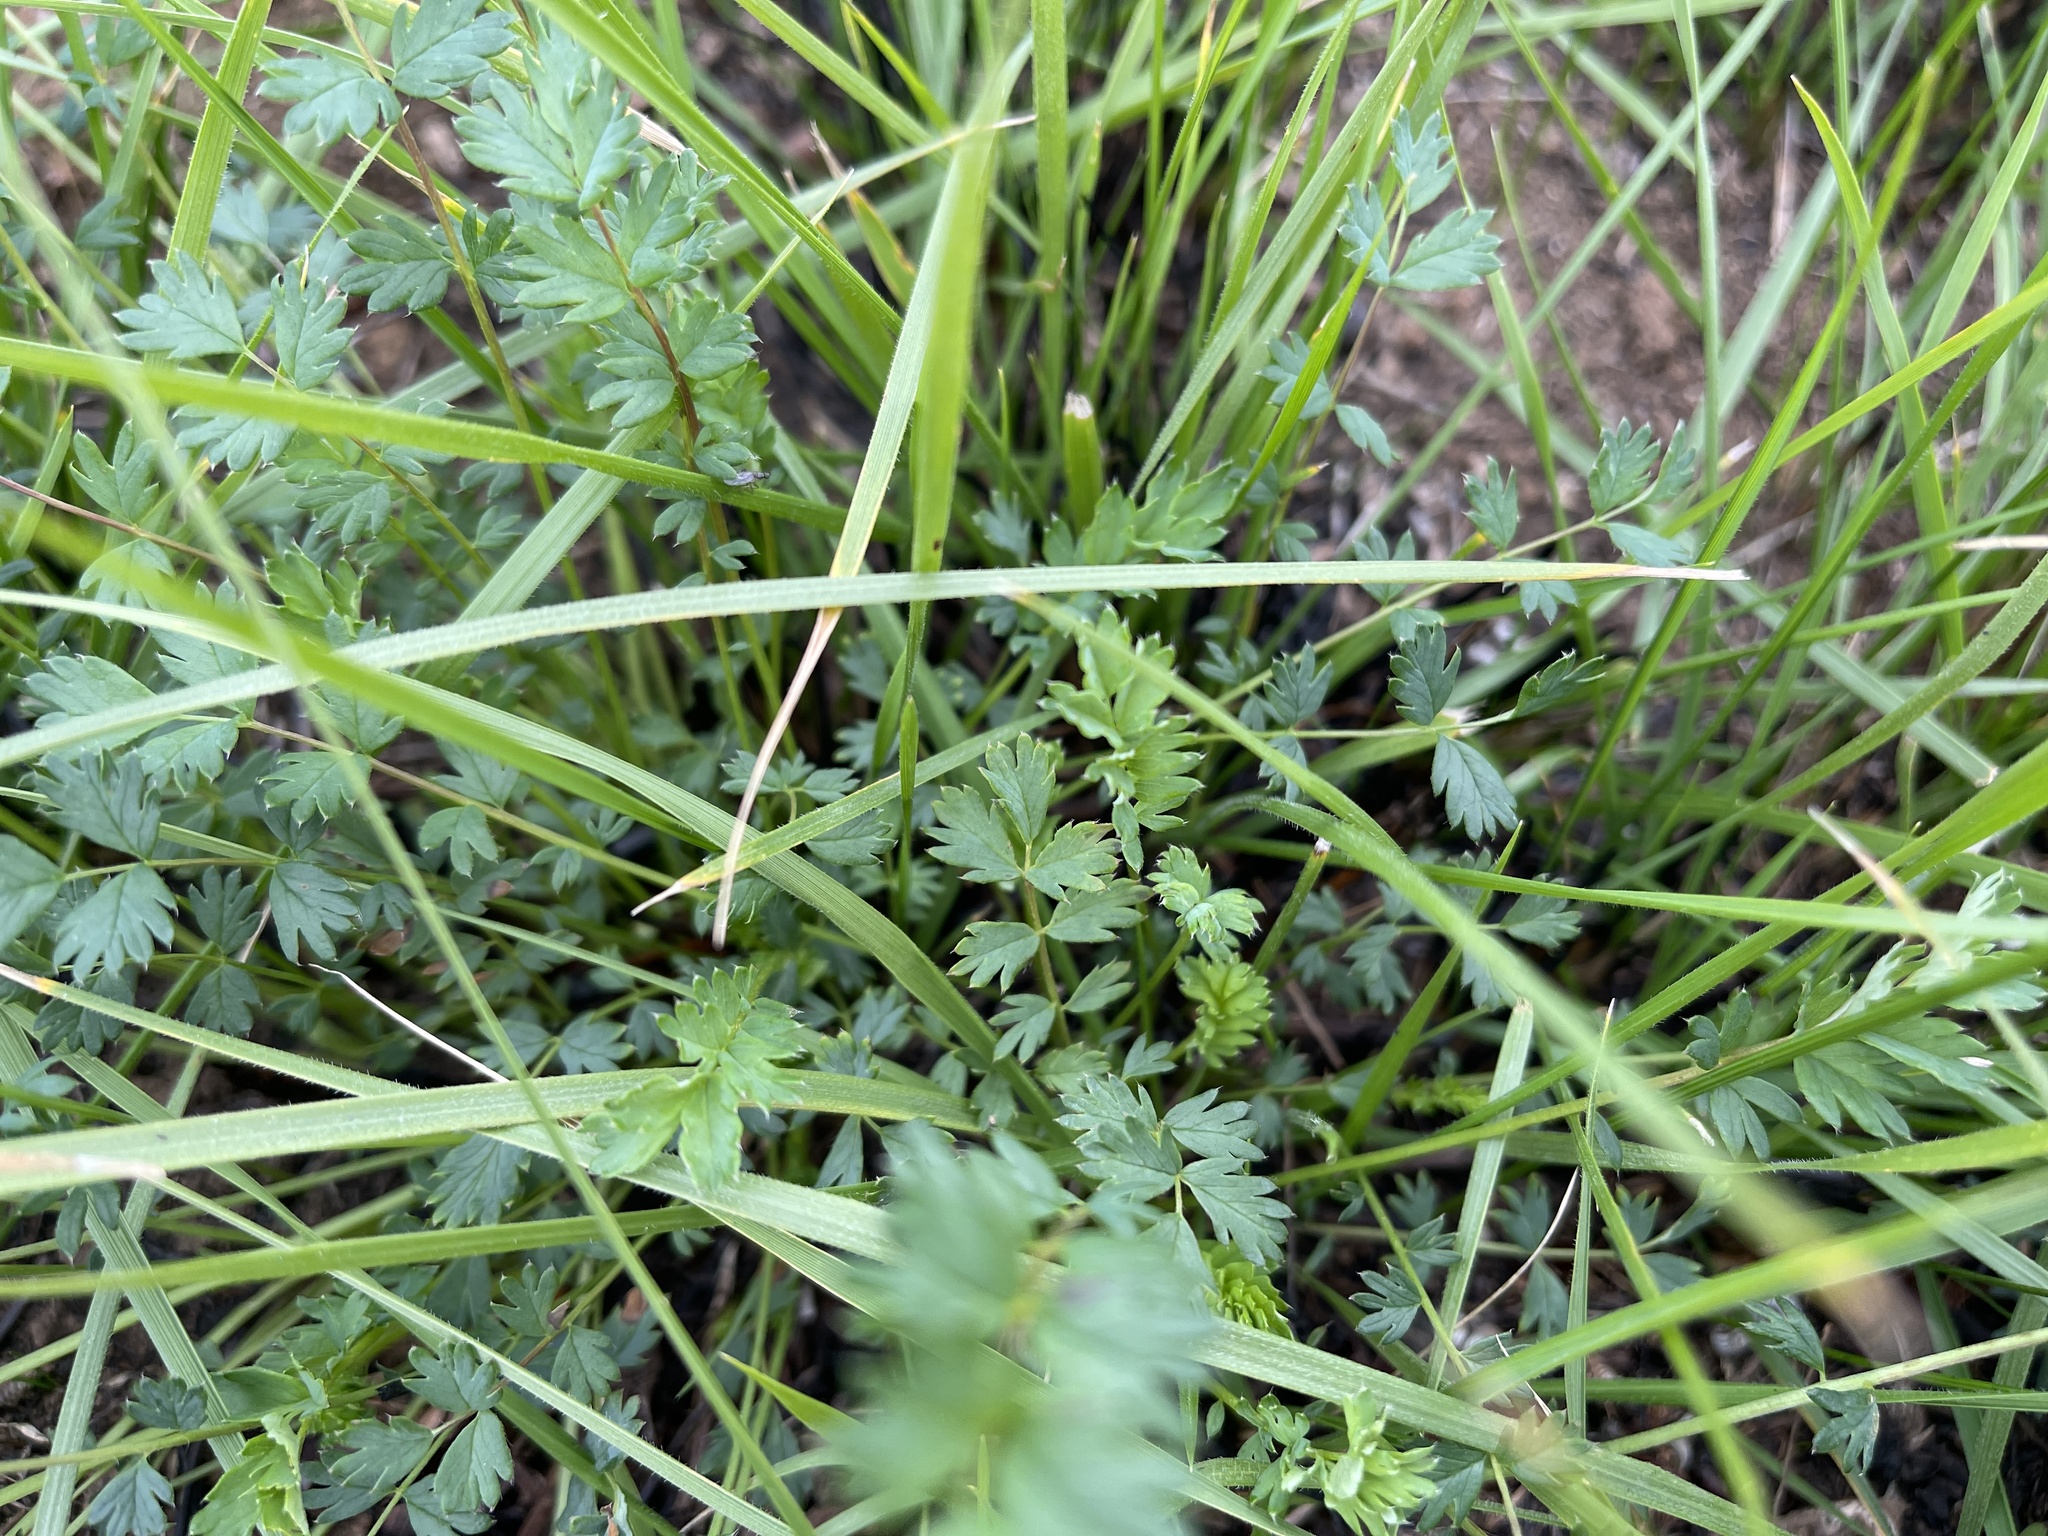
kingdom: Plantae
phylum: Tracheophyta
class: Magnoliopsida
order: Rosales
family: Rosaceae
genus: Acaena
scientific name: Acaena echinata
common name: Sheepbur
